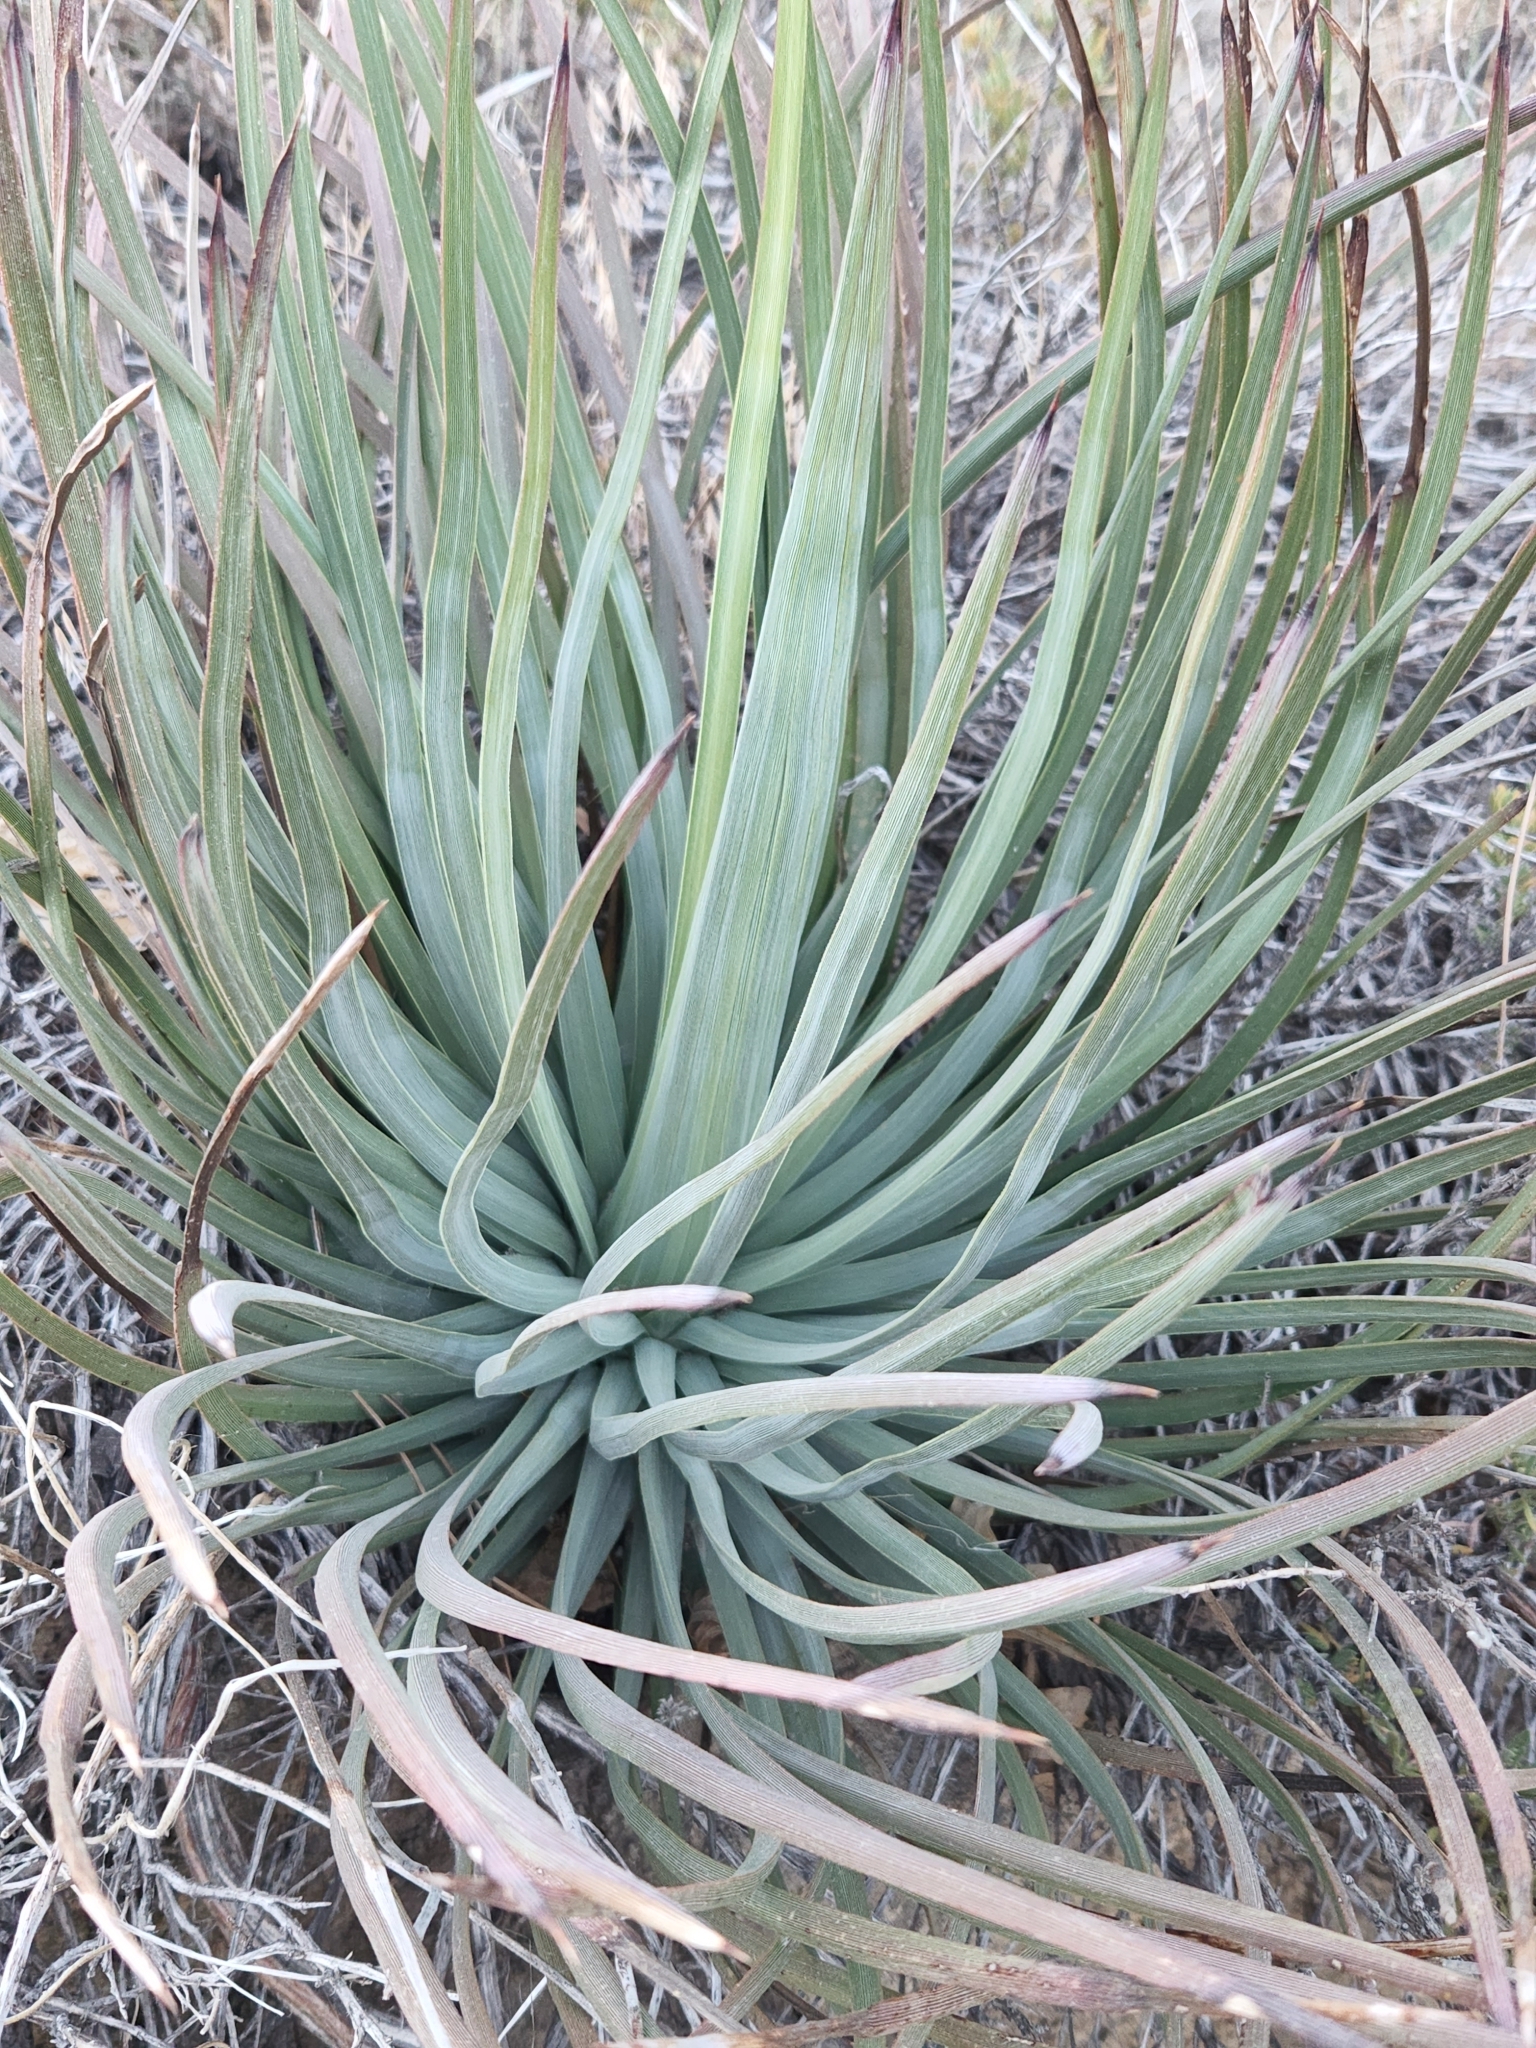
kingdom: Plantae
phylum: Tracheophyta
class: Liliopsida
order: Asparagales
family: Asparagaceae
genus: Hesperoyucca
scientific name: Hesperoyucca whipplei
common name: Our lord's-candle
